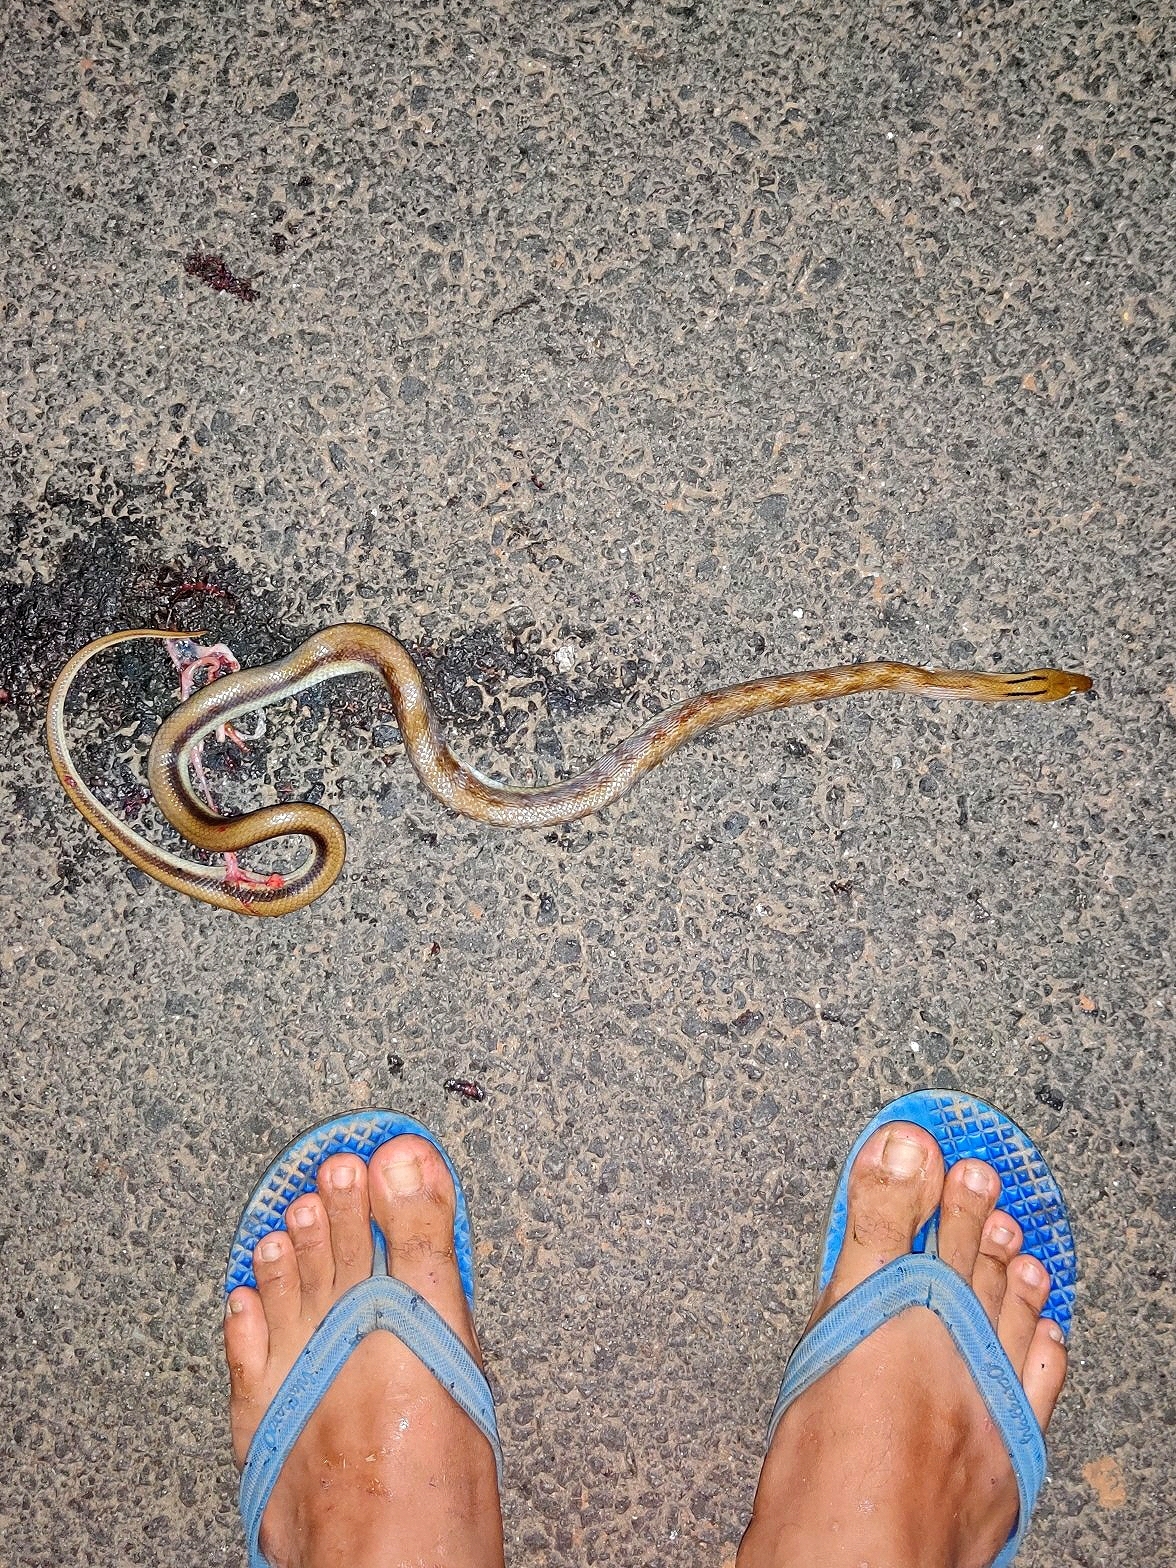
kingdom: Animalia
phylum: Chordata
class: Squamata
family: Colubridae
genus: Coelognathus
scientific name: Coelognathus helena
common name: Trinket snake
